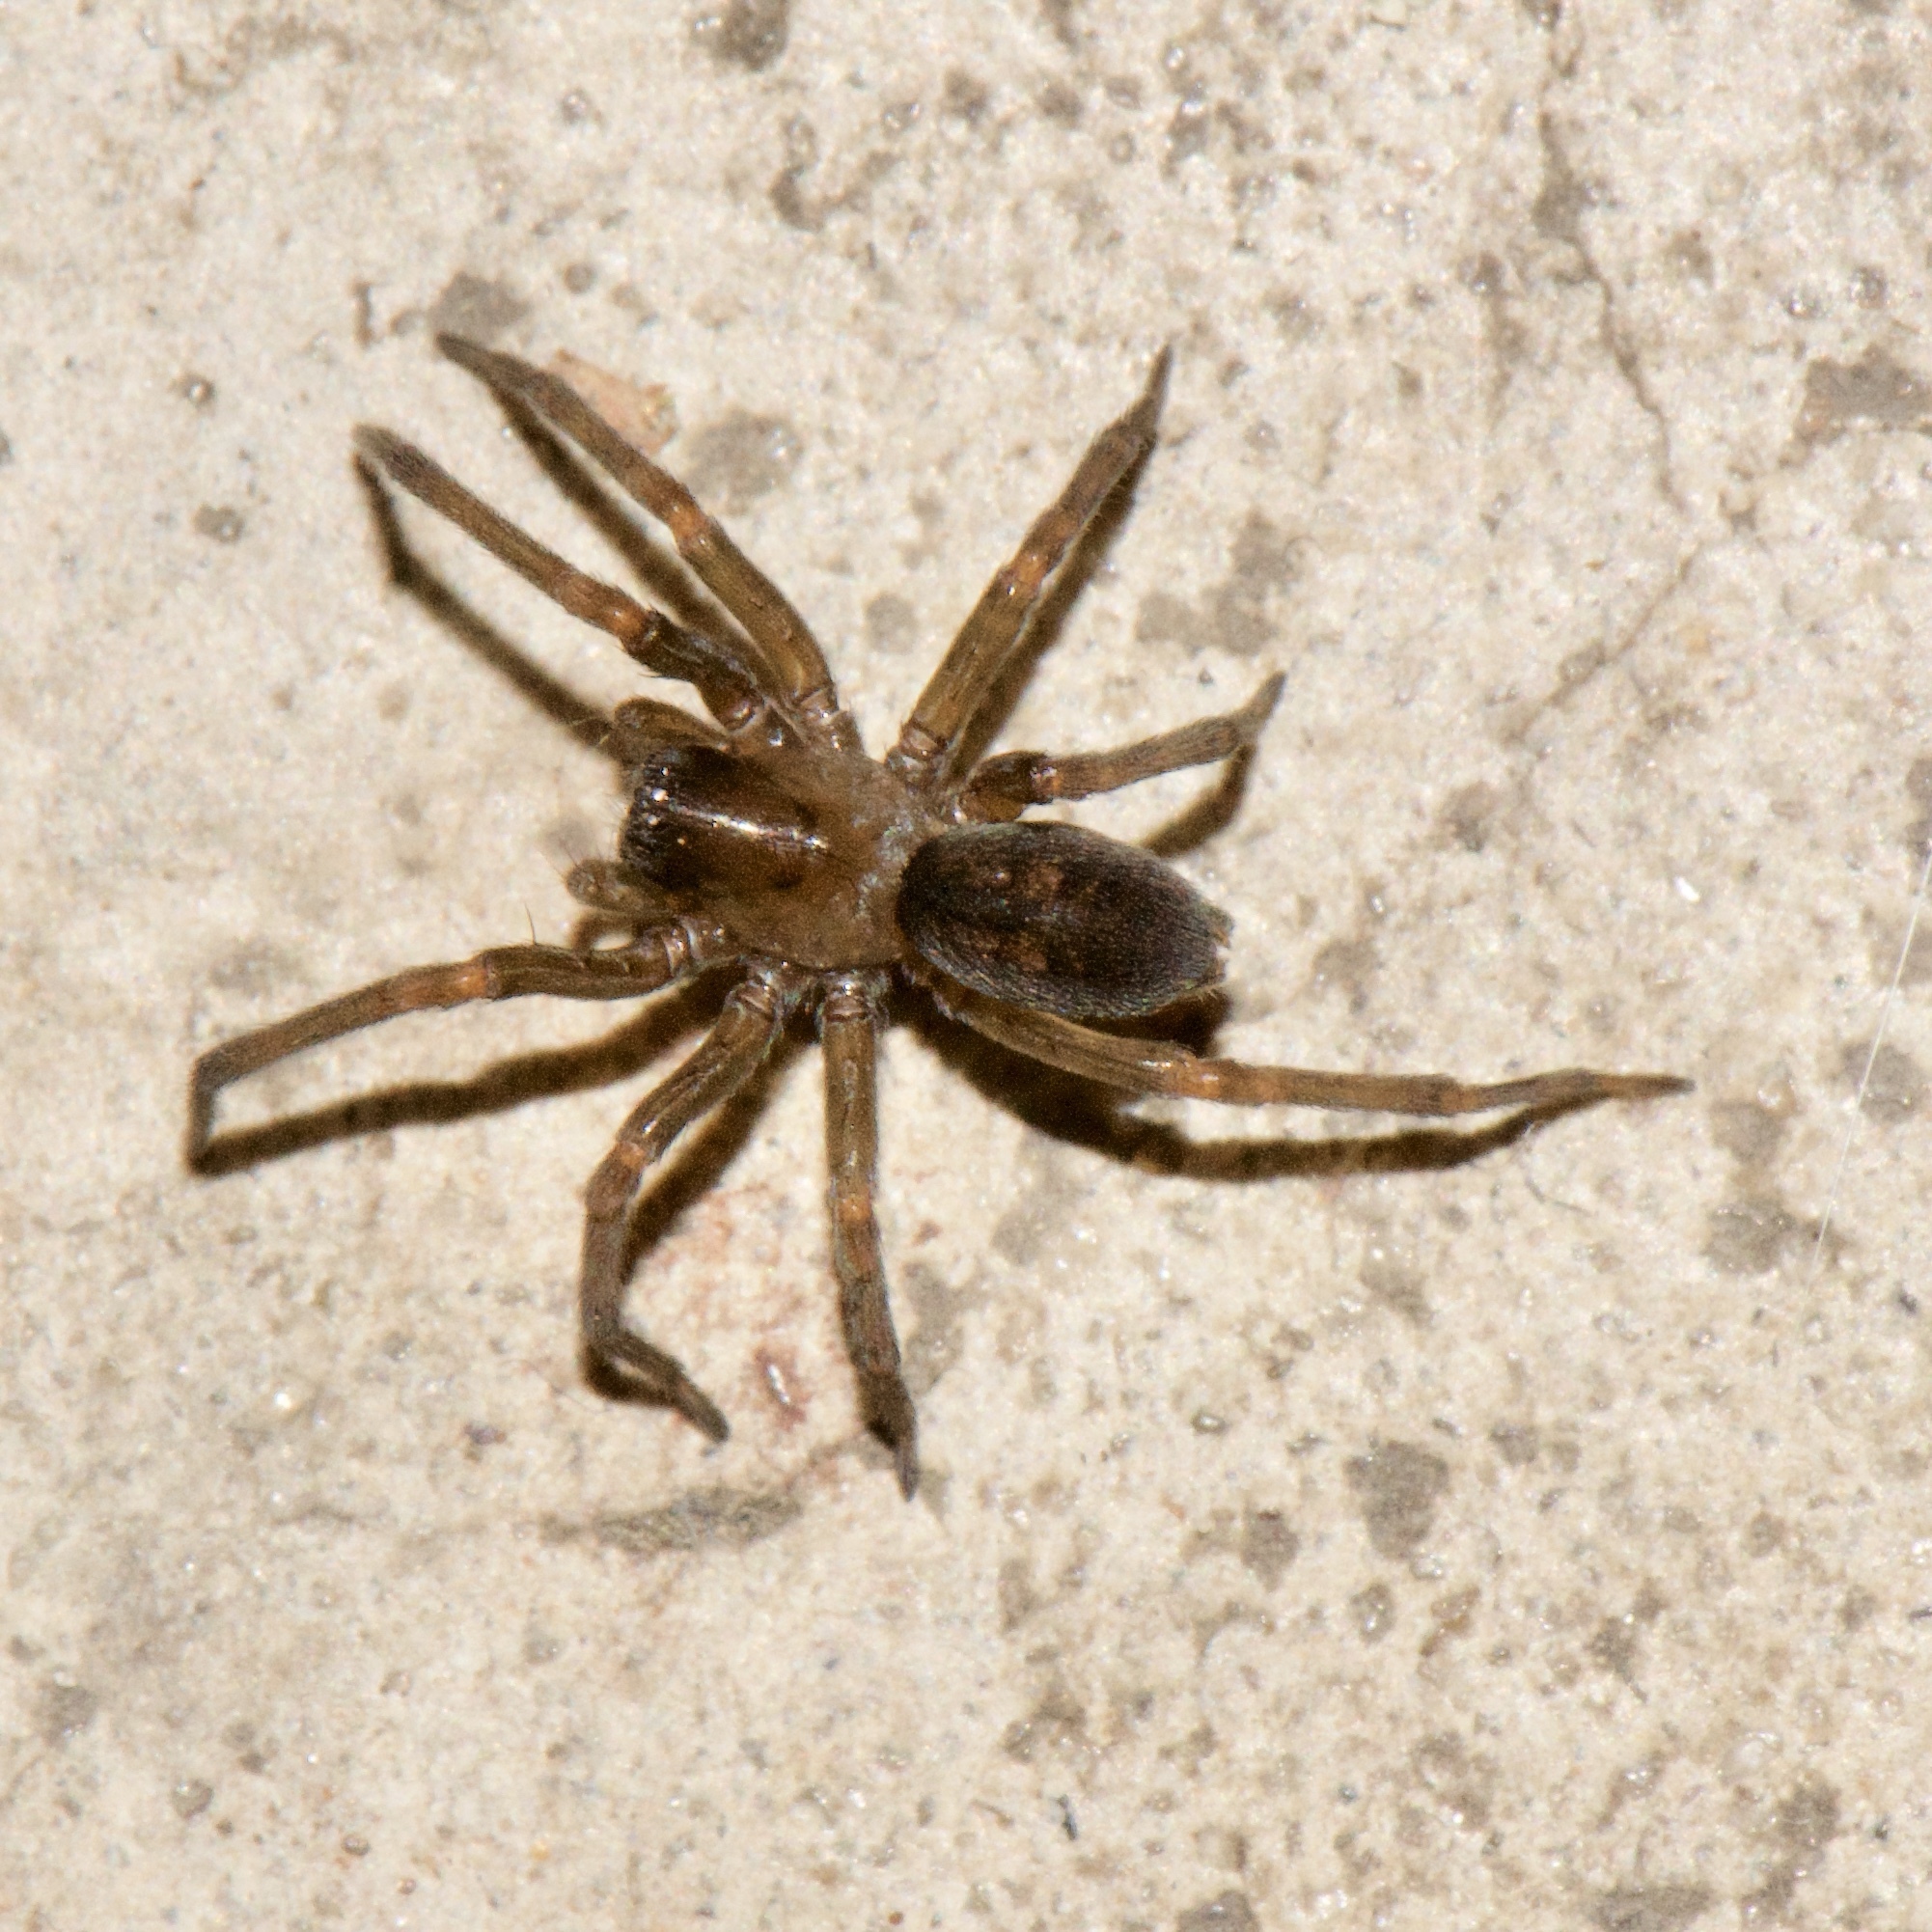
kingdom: Animalia
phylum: Arthropoda
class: Arachnida
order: Araneae
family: Desidae
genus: Metaltella
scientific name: Metaltella simoni
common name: Cribellate spider
